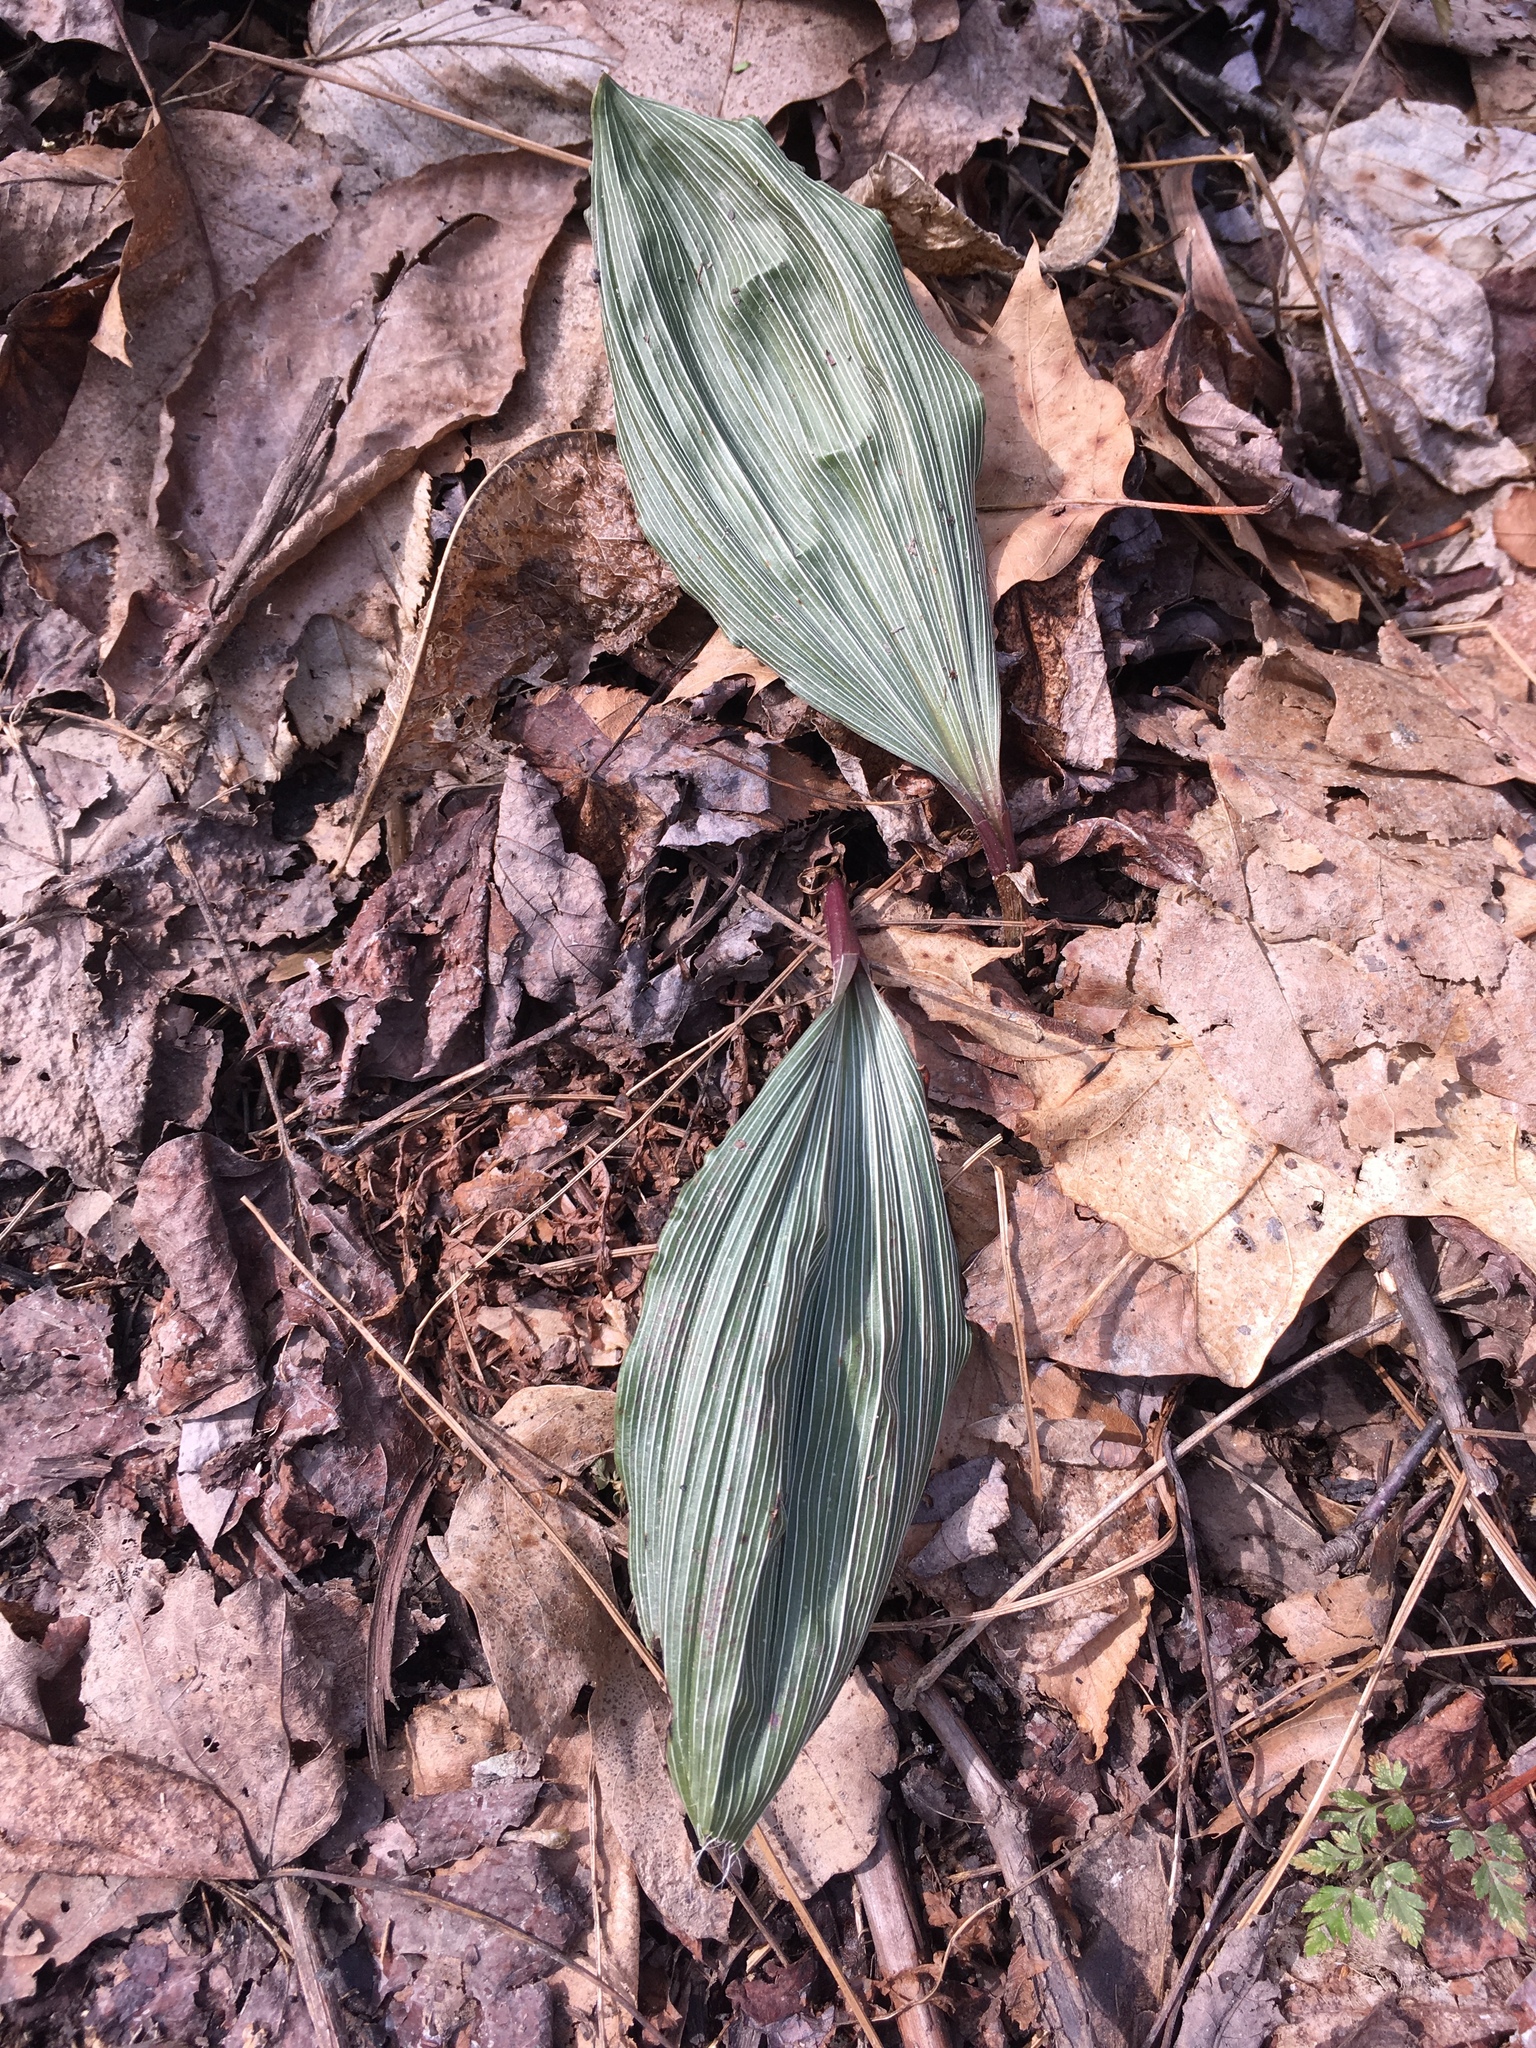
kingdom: Plantae
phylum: Tracheophyta
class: Liliopsida
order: Asparagales
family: Orchidaceae
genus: Aplectrum
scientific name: Aplectrum hyemale
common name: Adam-and-eve
